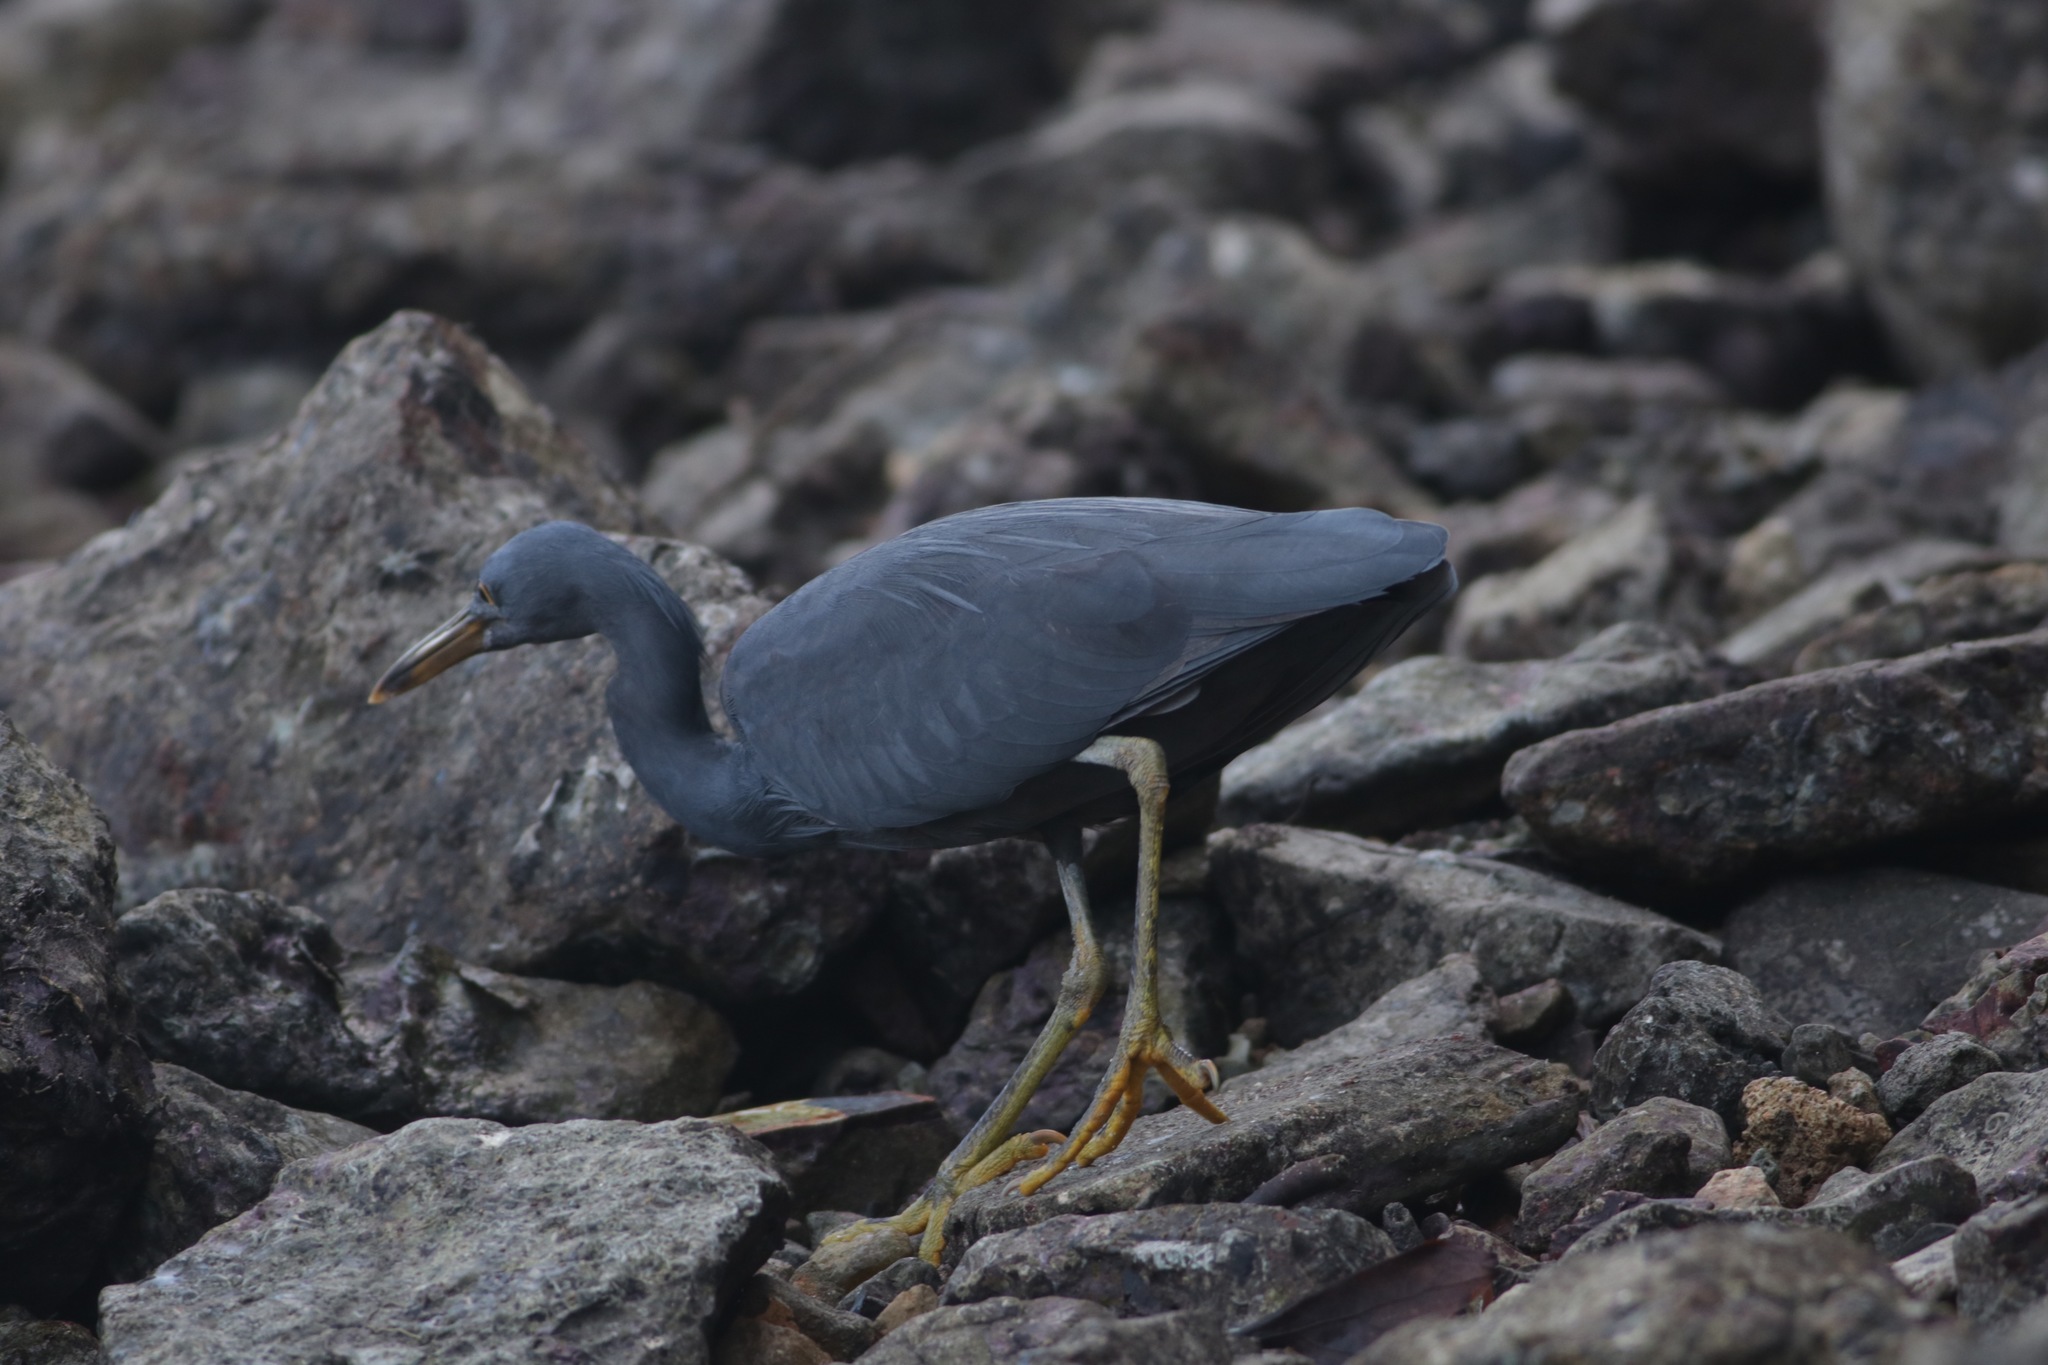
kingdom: Animalia
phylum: Chordata
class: Aves
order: Pelecaniformes
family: Ardeidae
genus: Egretta
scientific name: Egretta sacra
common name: Pacific reef heron
